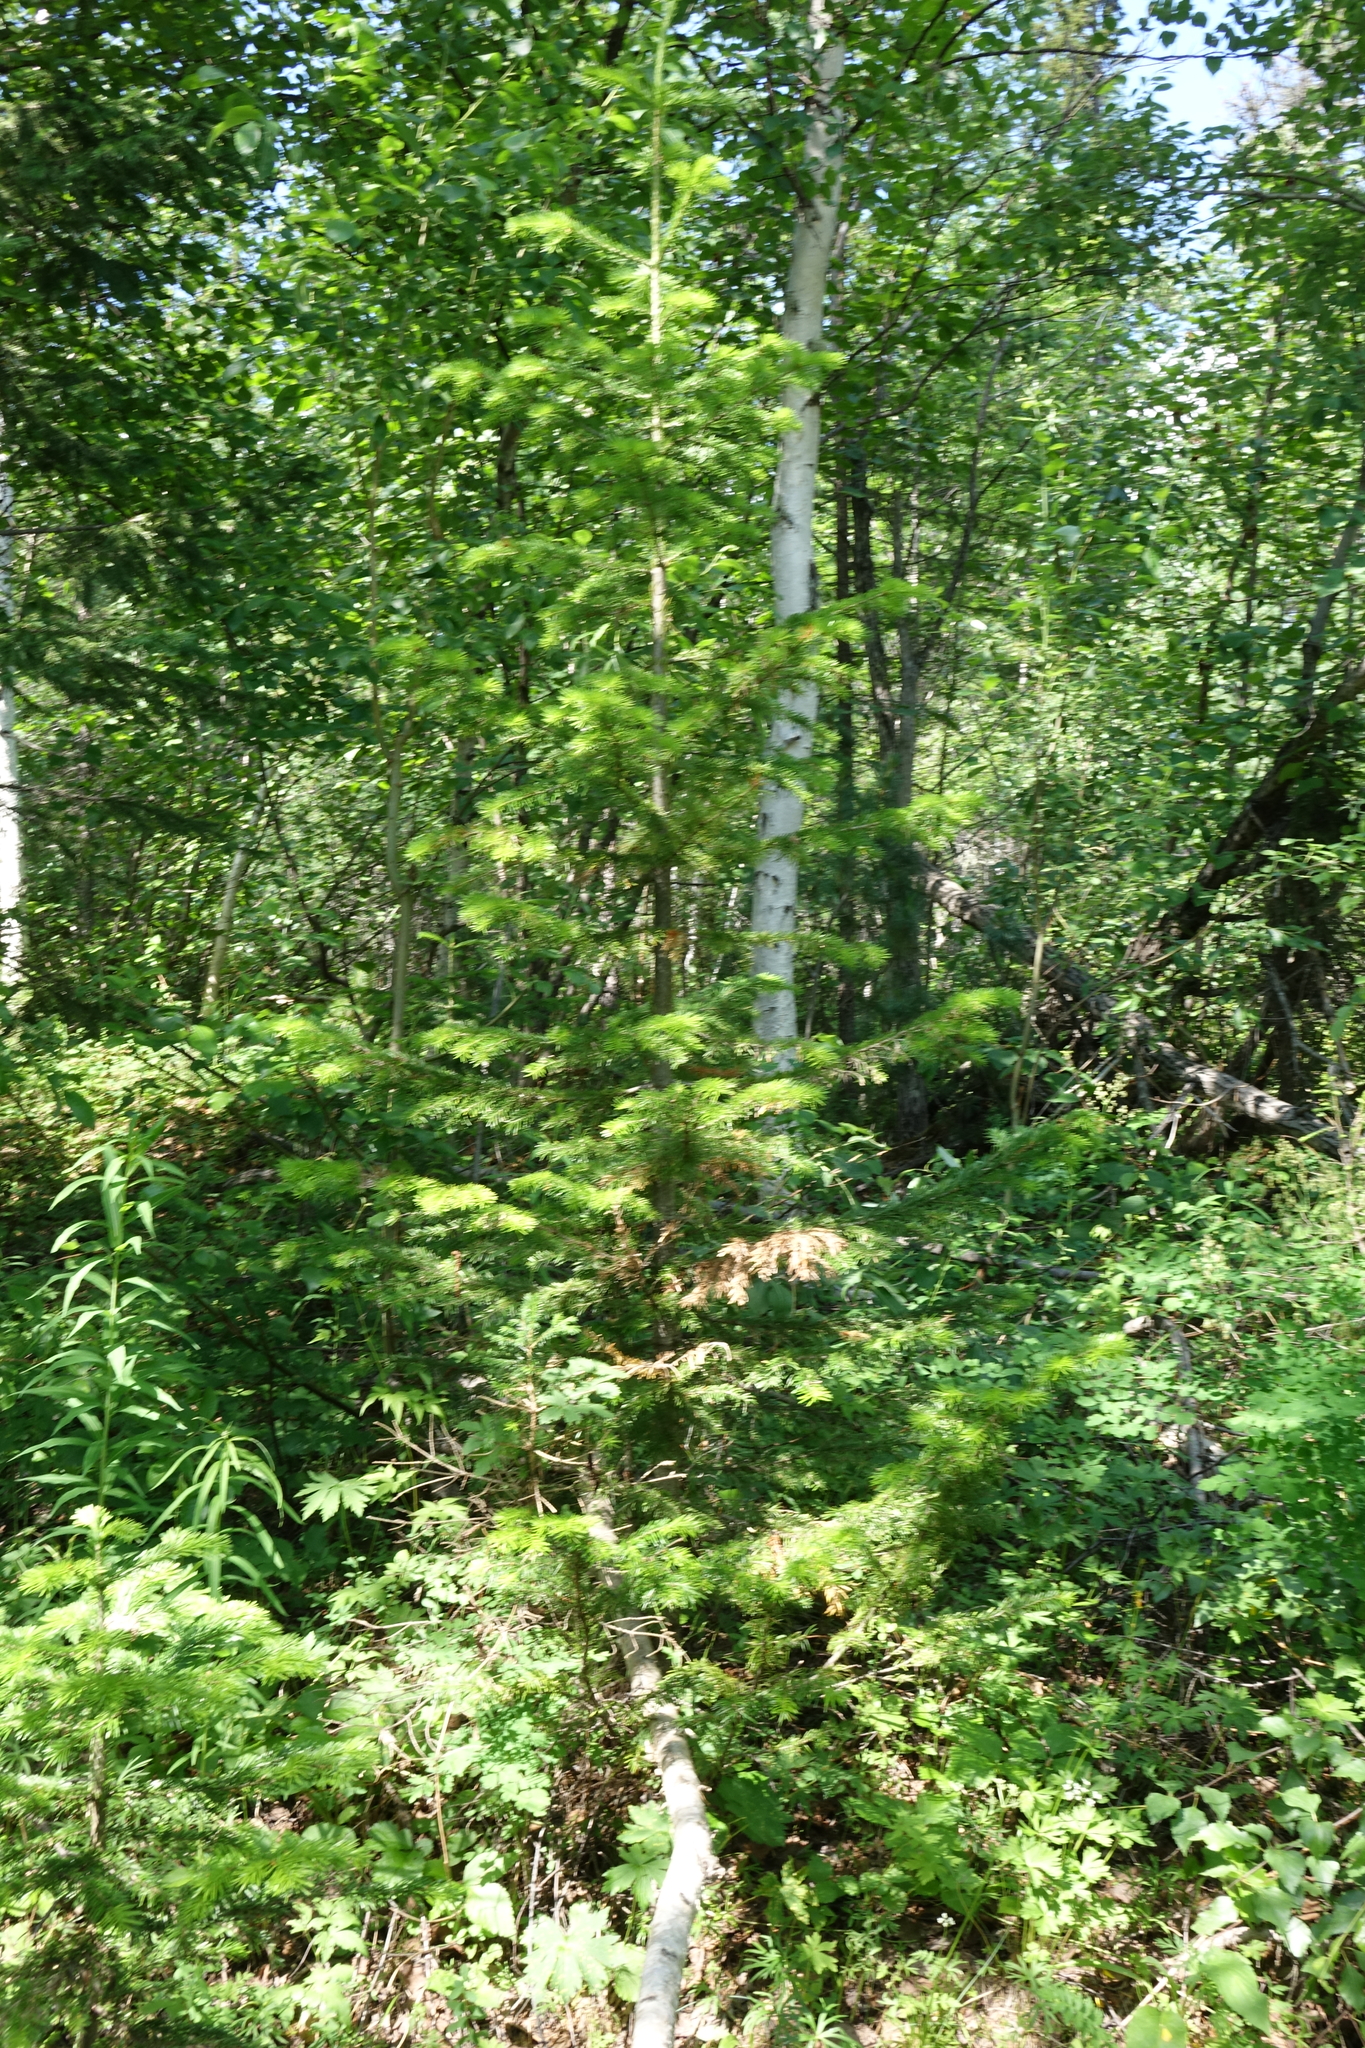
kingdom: Plantae
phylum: Tracheophyta
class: Pinopsida
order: Pinales
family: Pinaceae
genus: Abies
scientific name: Abies sibirica
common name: Siberian fir
